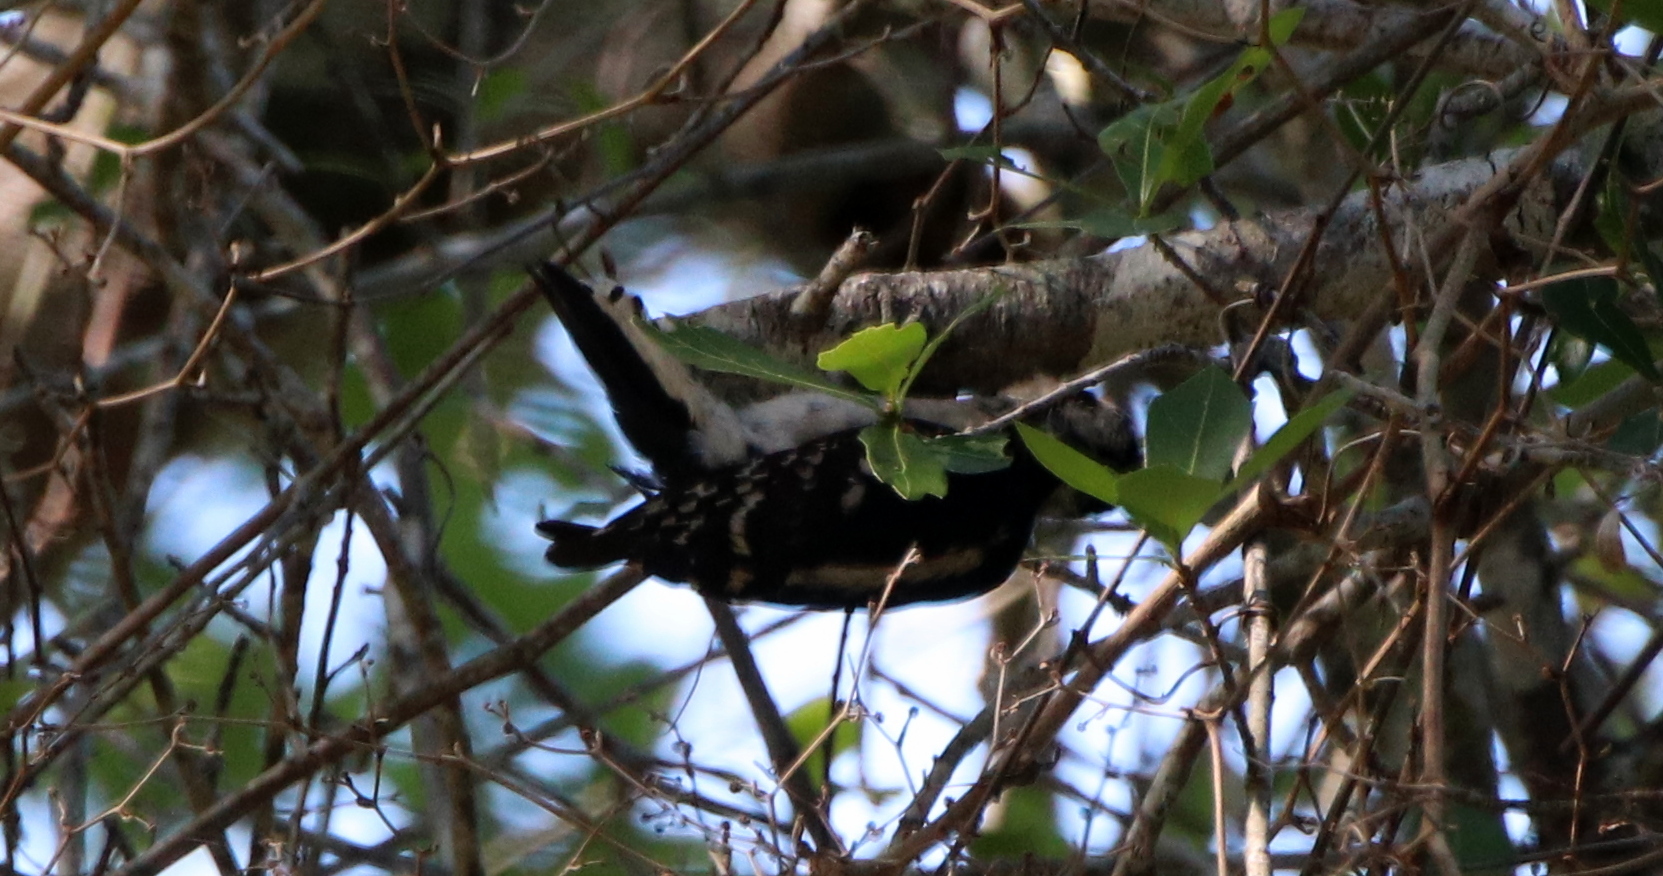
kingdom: Animalia
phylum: Chordata
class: Aves
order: Piciformes
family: Picidae
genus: Dryobates
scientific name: Dryobates pubescens
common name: Downy woodpecker
